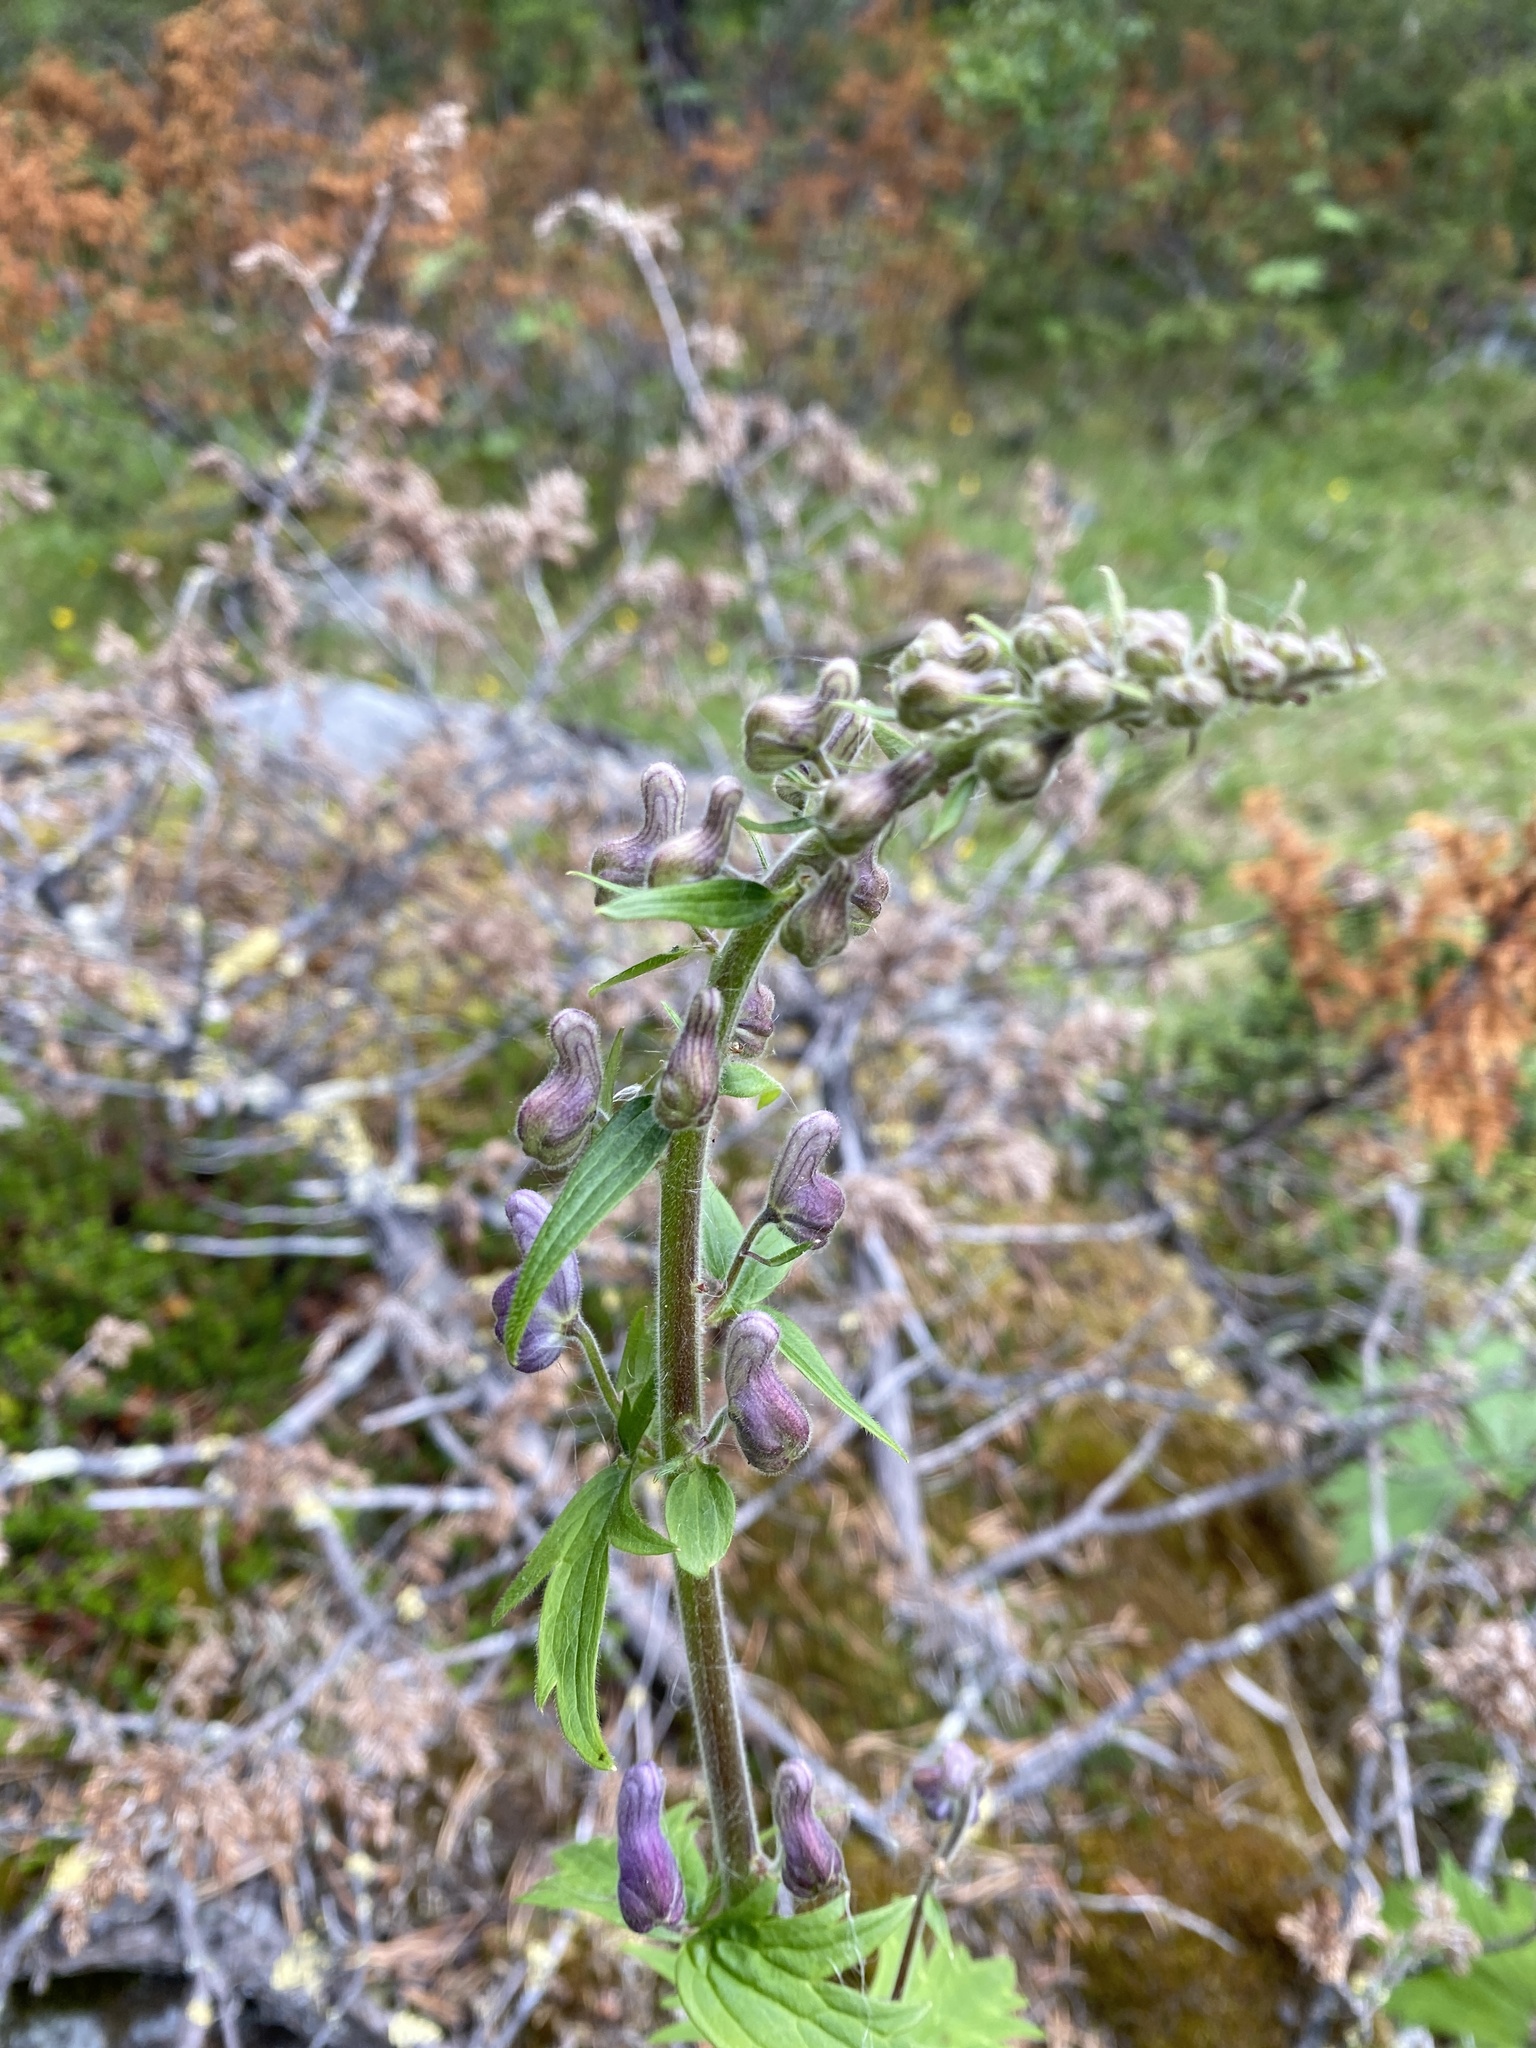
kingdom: Plantae
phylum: Tracheophyta
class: Magnoliopsida
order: Ranunculales
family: Ranunculaceae
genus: Aconitum
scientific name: Aconitum septentrionale
